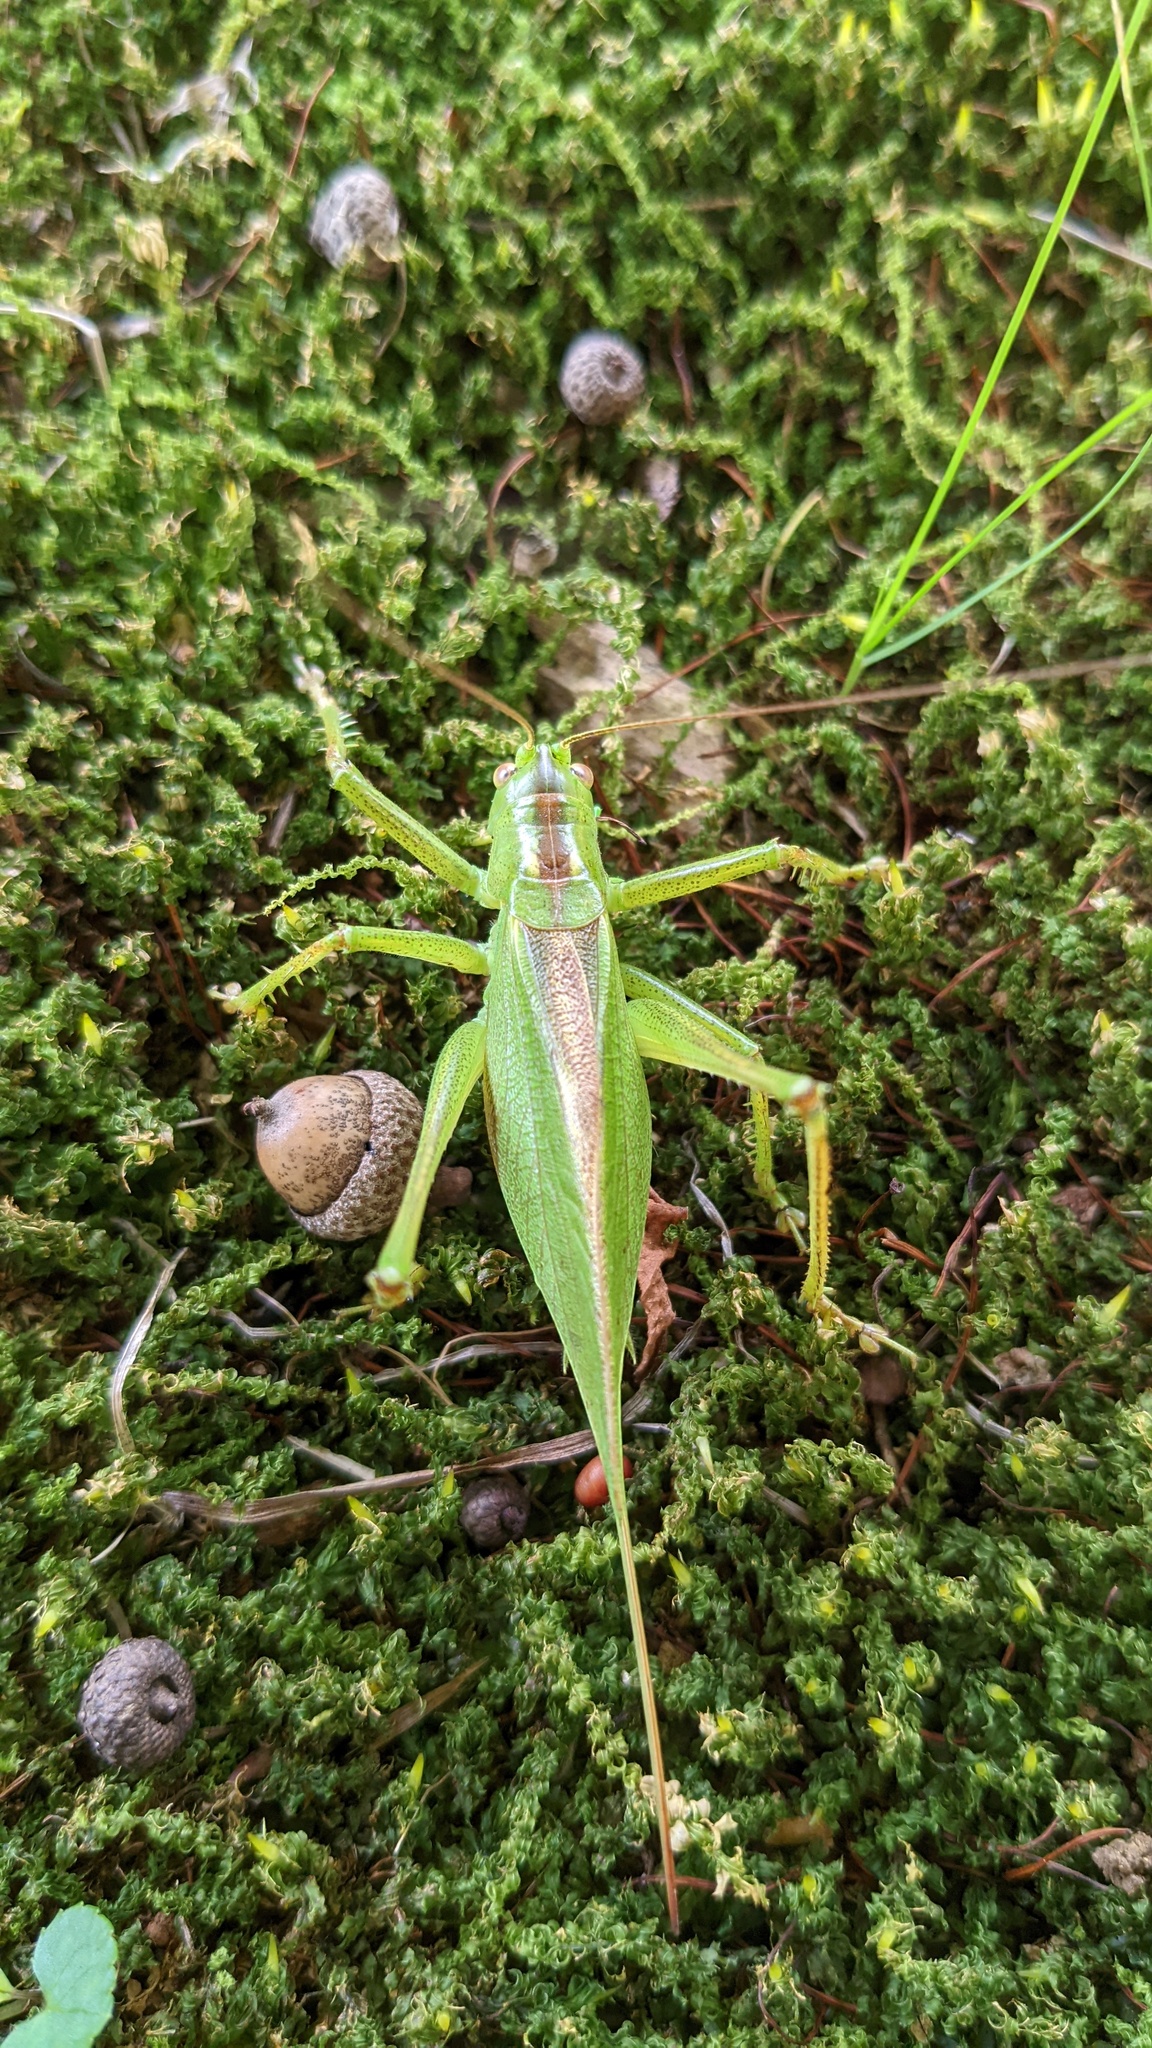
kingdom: Animalia
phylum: Arthropoda
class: Insecta
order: Orthoptera
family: Tettigoniidae
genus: Tettigonia
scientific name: Tettigonia orientalis
